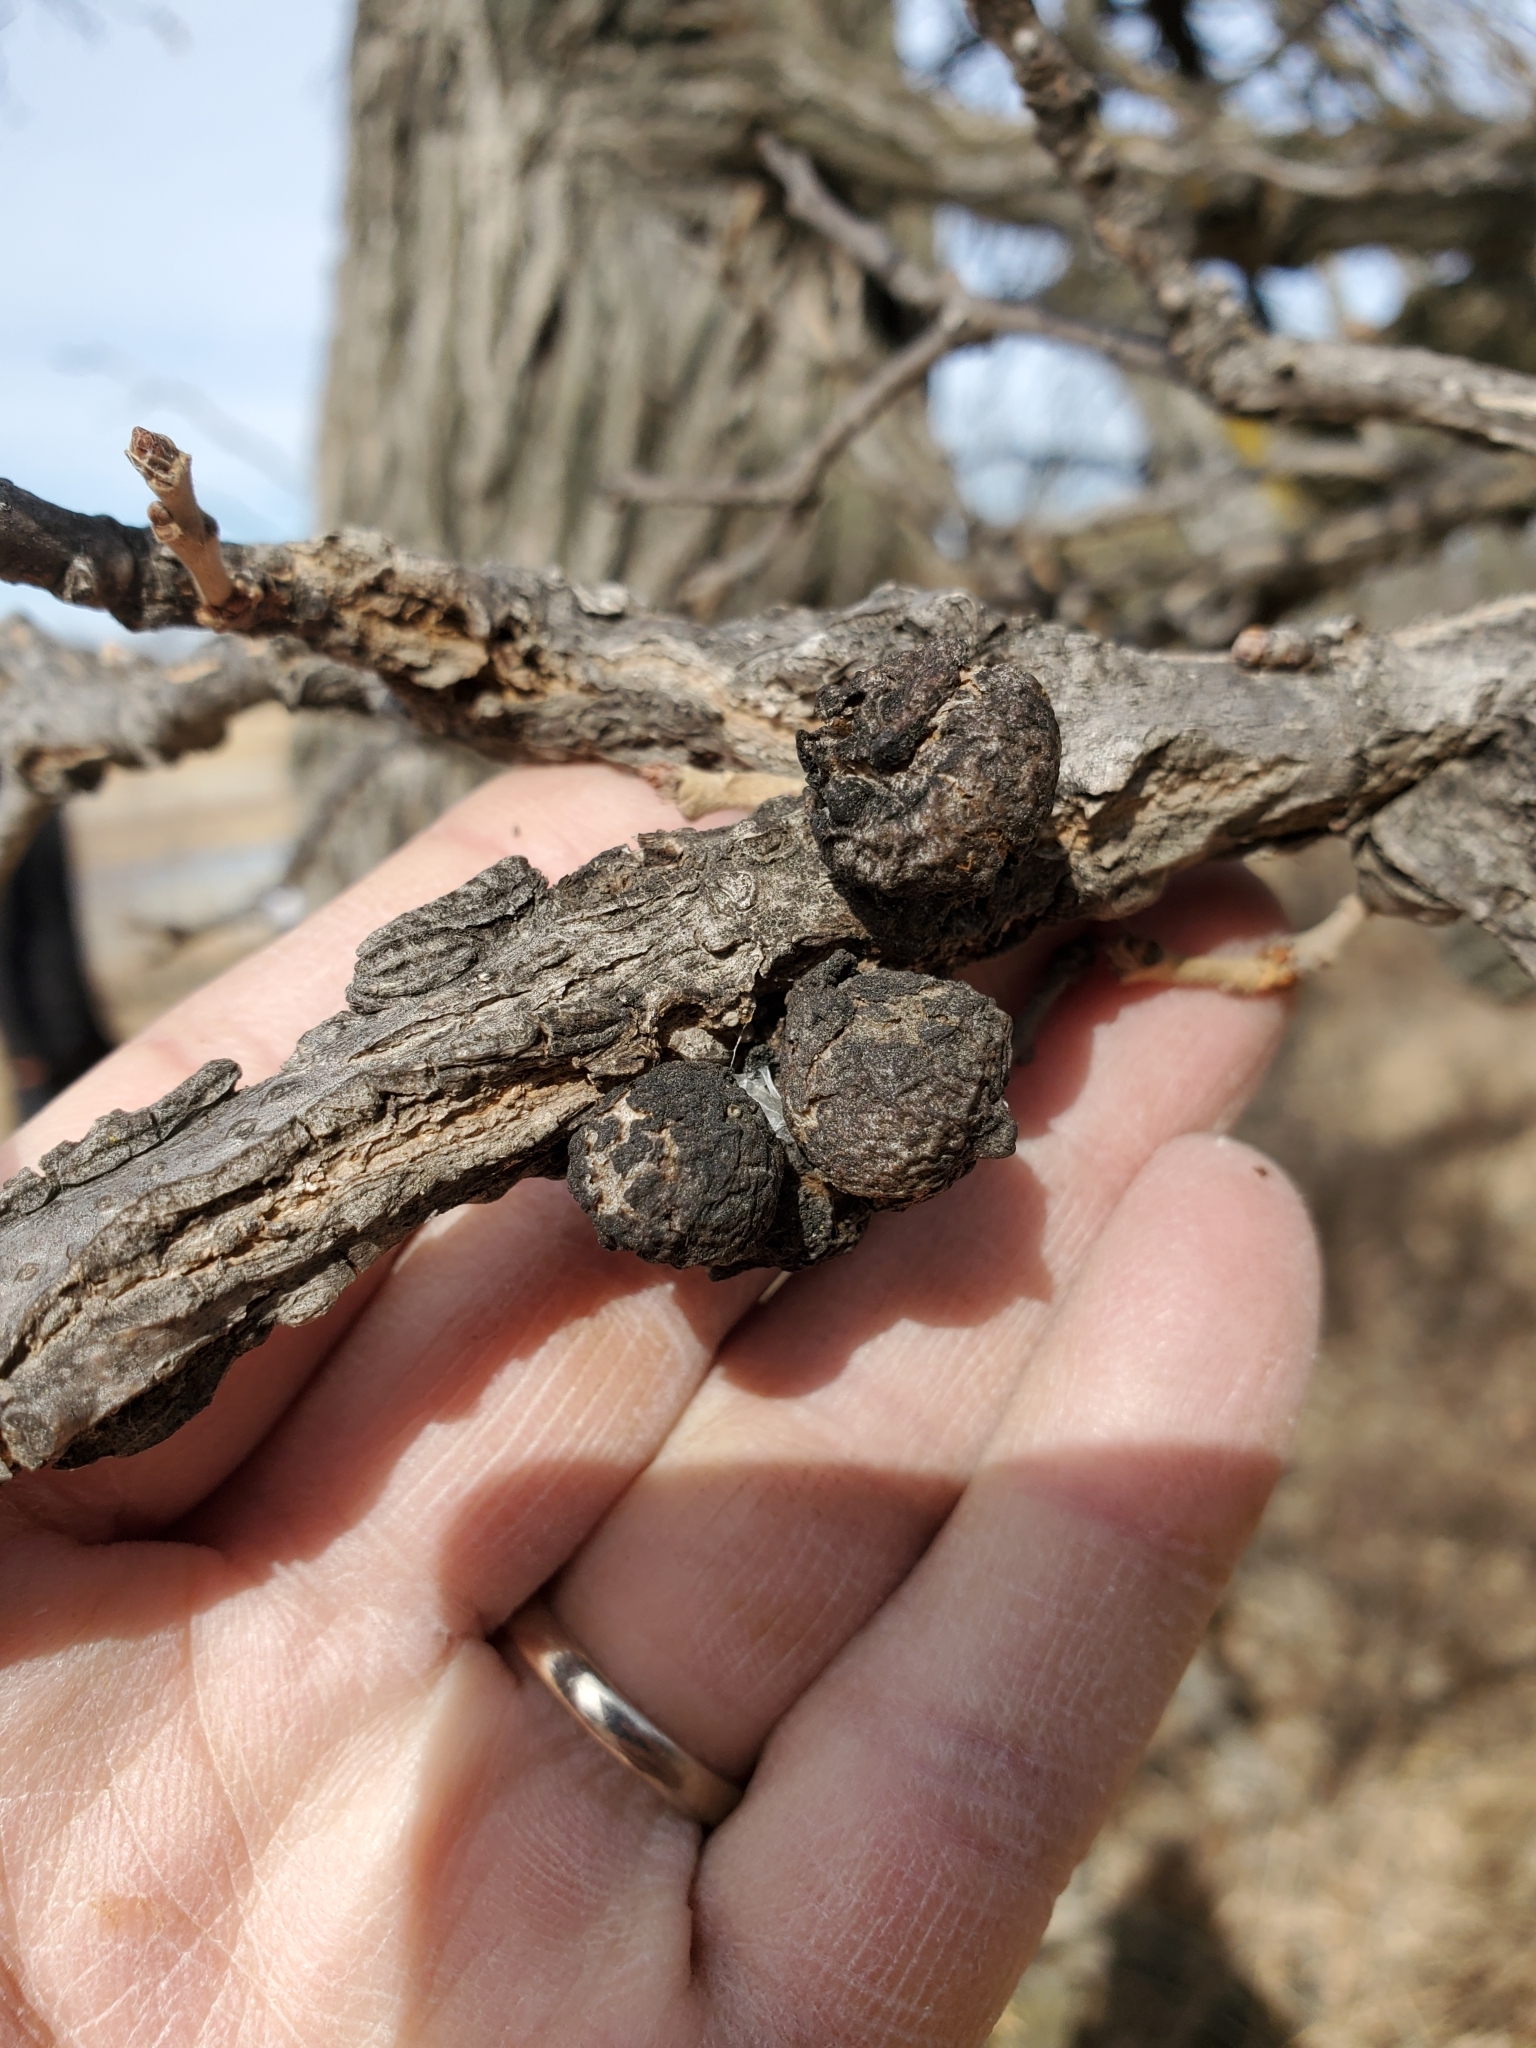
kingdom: Animalia
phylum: Arthropoda
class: Insecta
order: Hymenoptera
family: Cynipidae
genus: Disholcaspis
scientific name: Disholcaspis
